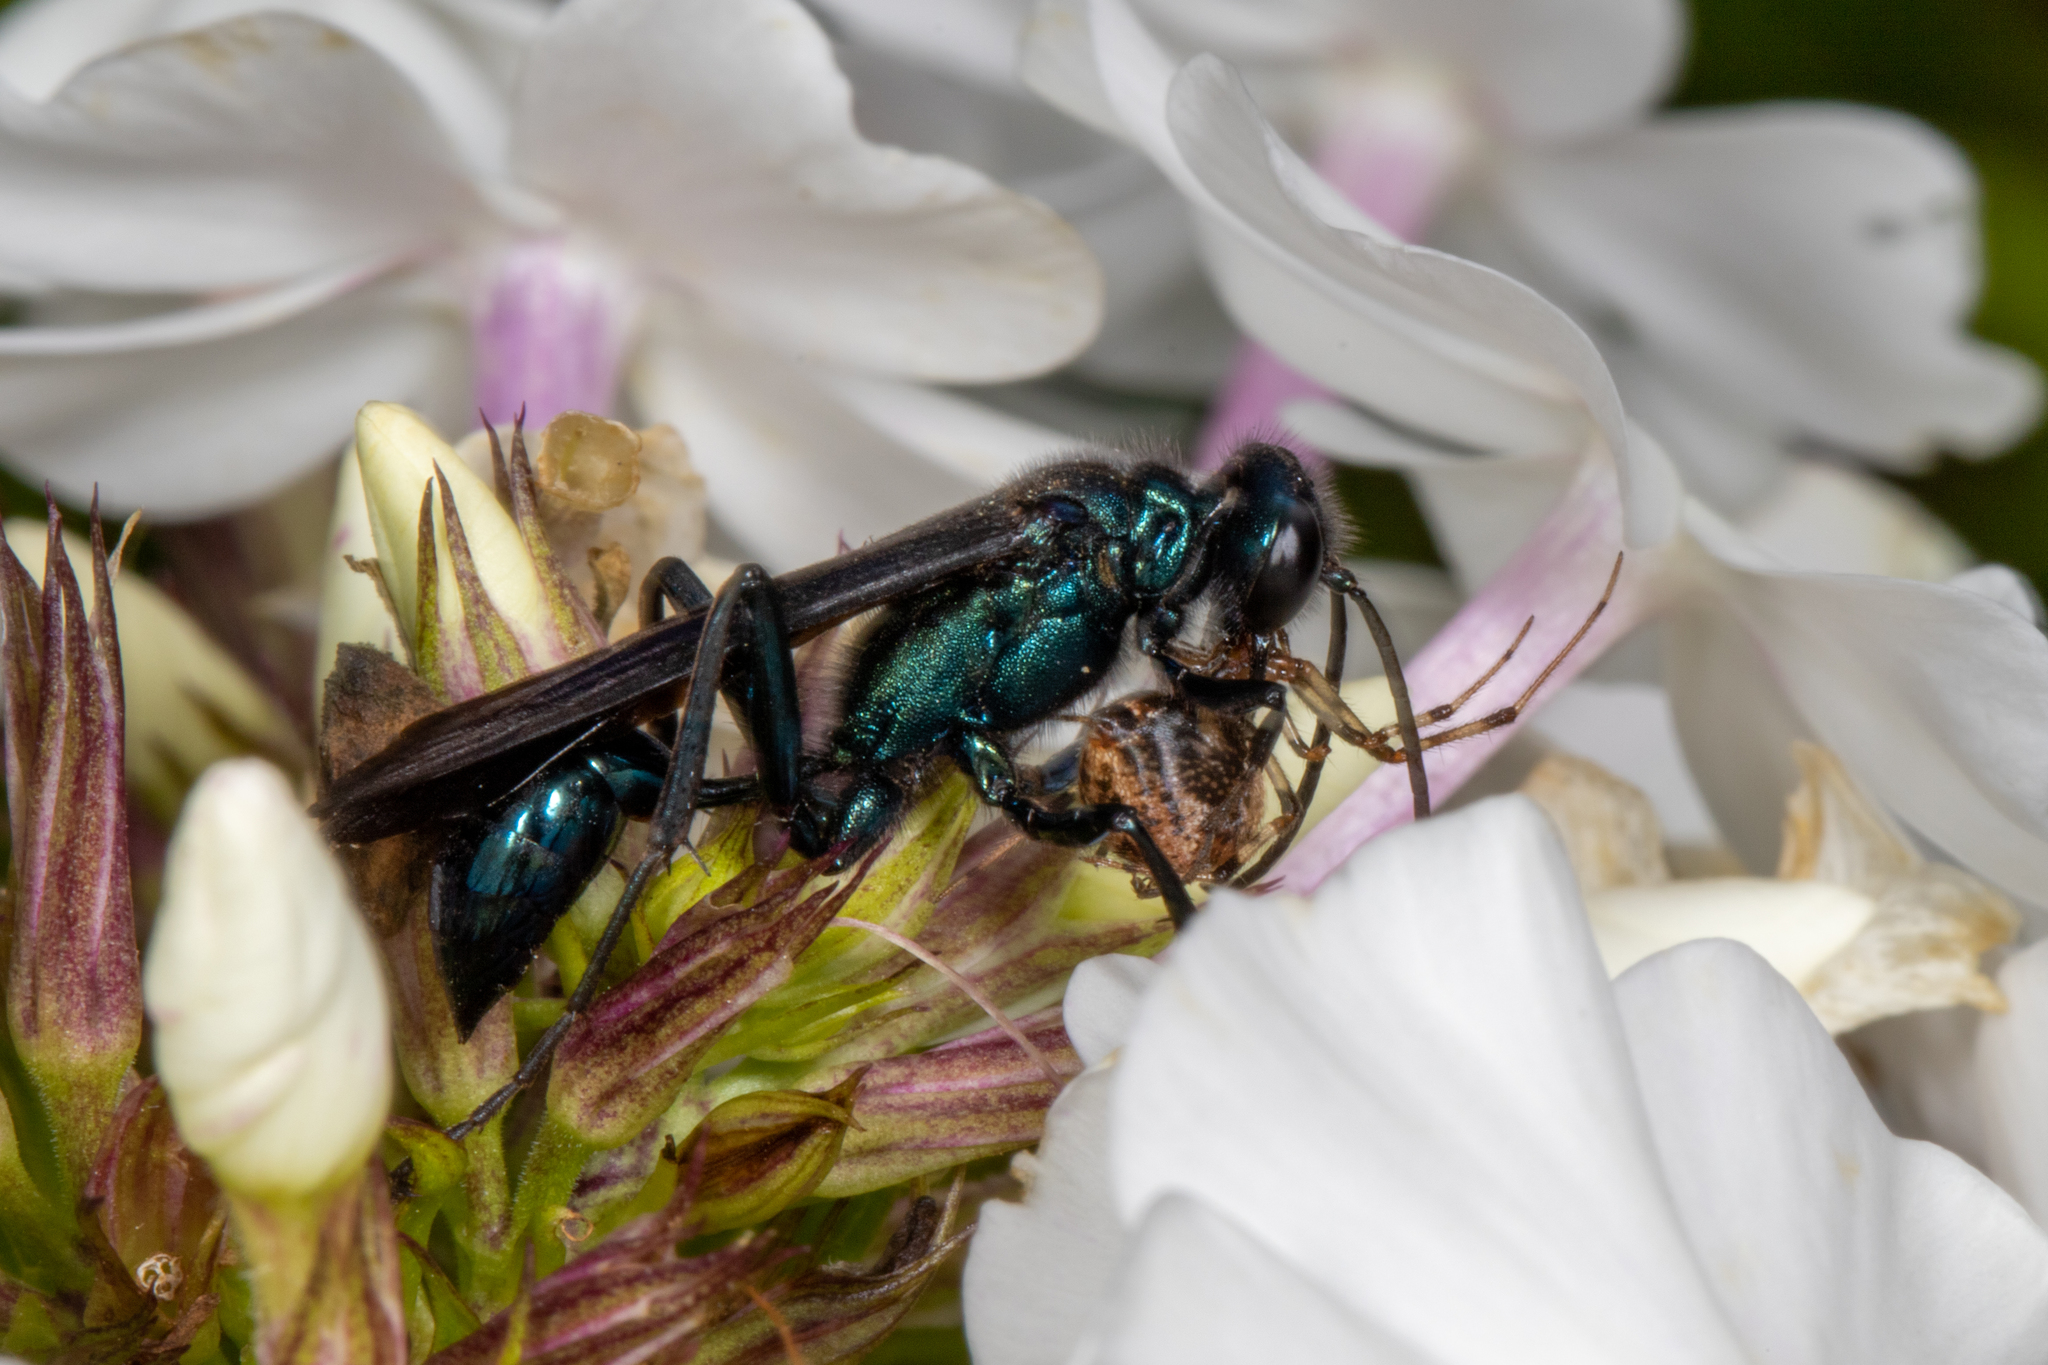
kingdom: Animalia
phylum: Arthropoda
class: Insecta
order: Hymenoptera
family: Sphecidae
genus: Chalybion
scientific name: Chalybion californicum
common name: Mud dauber
